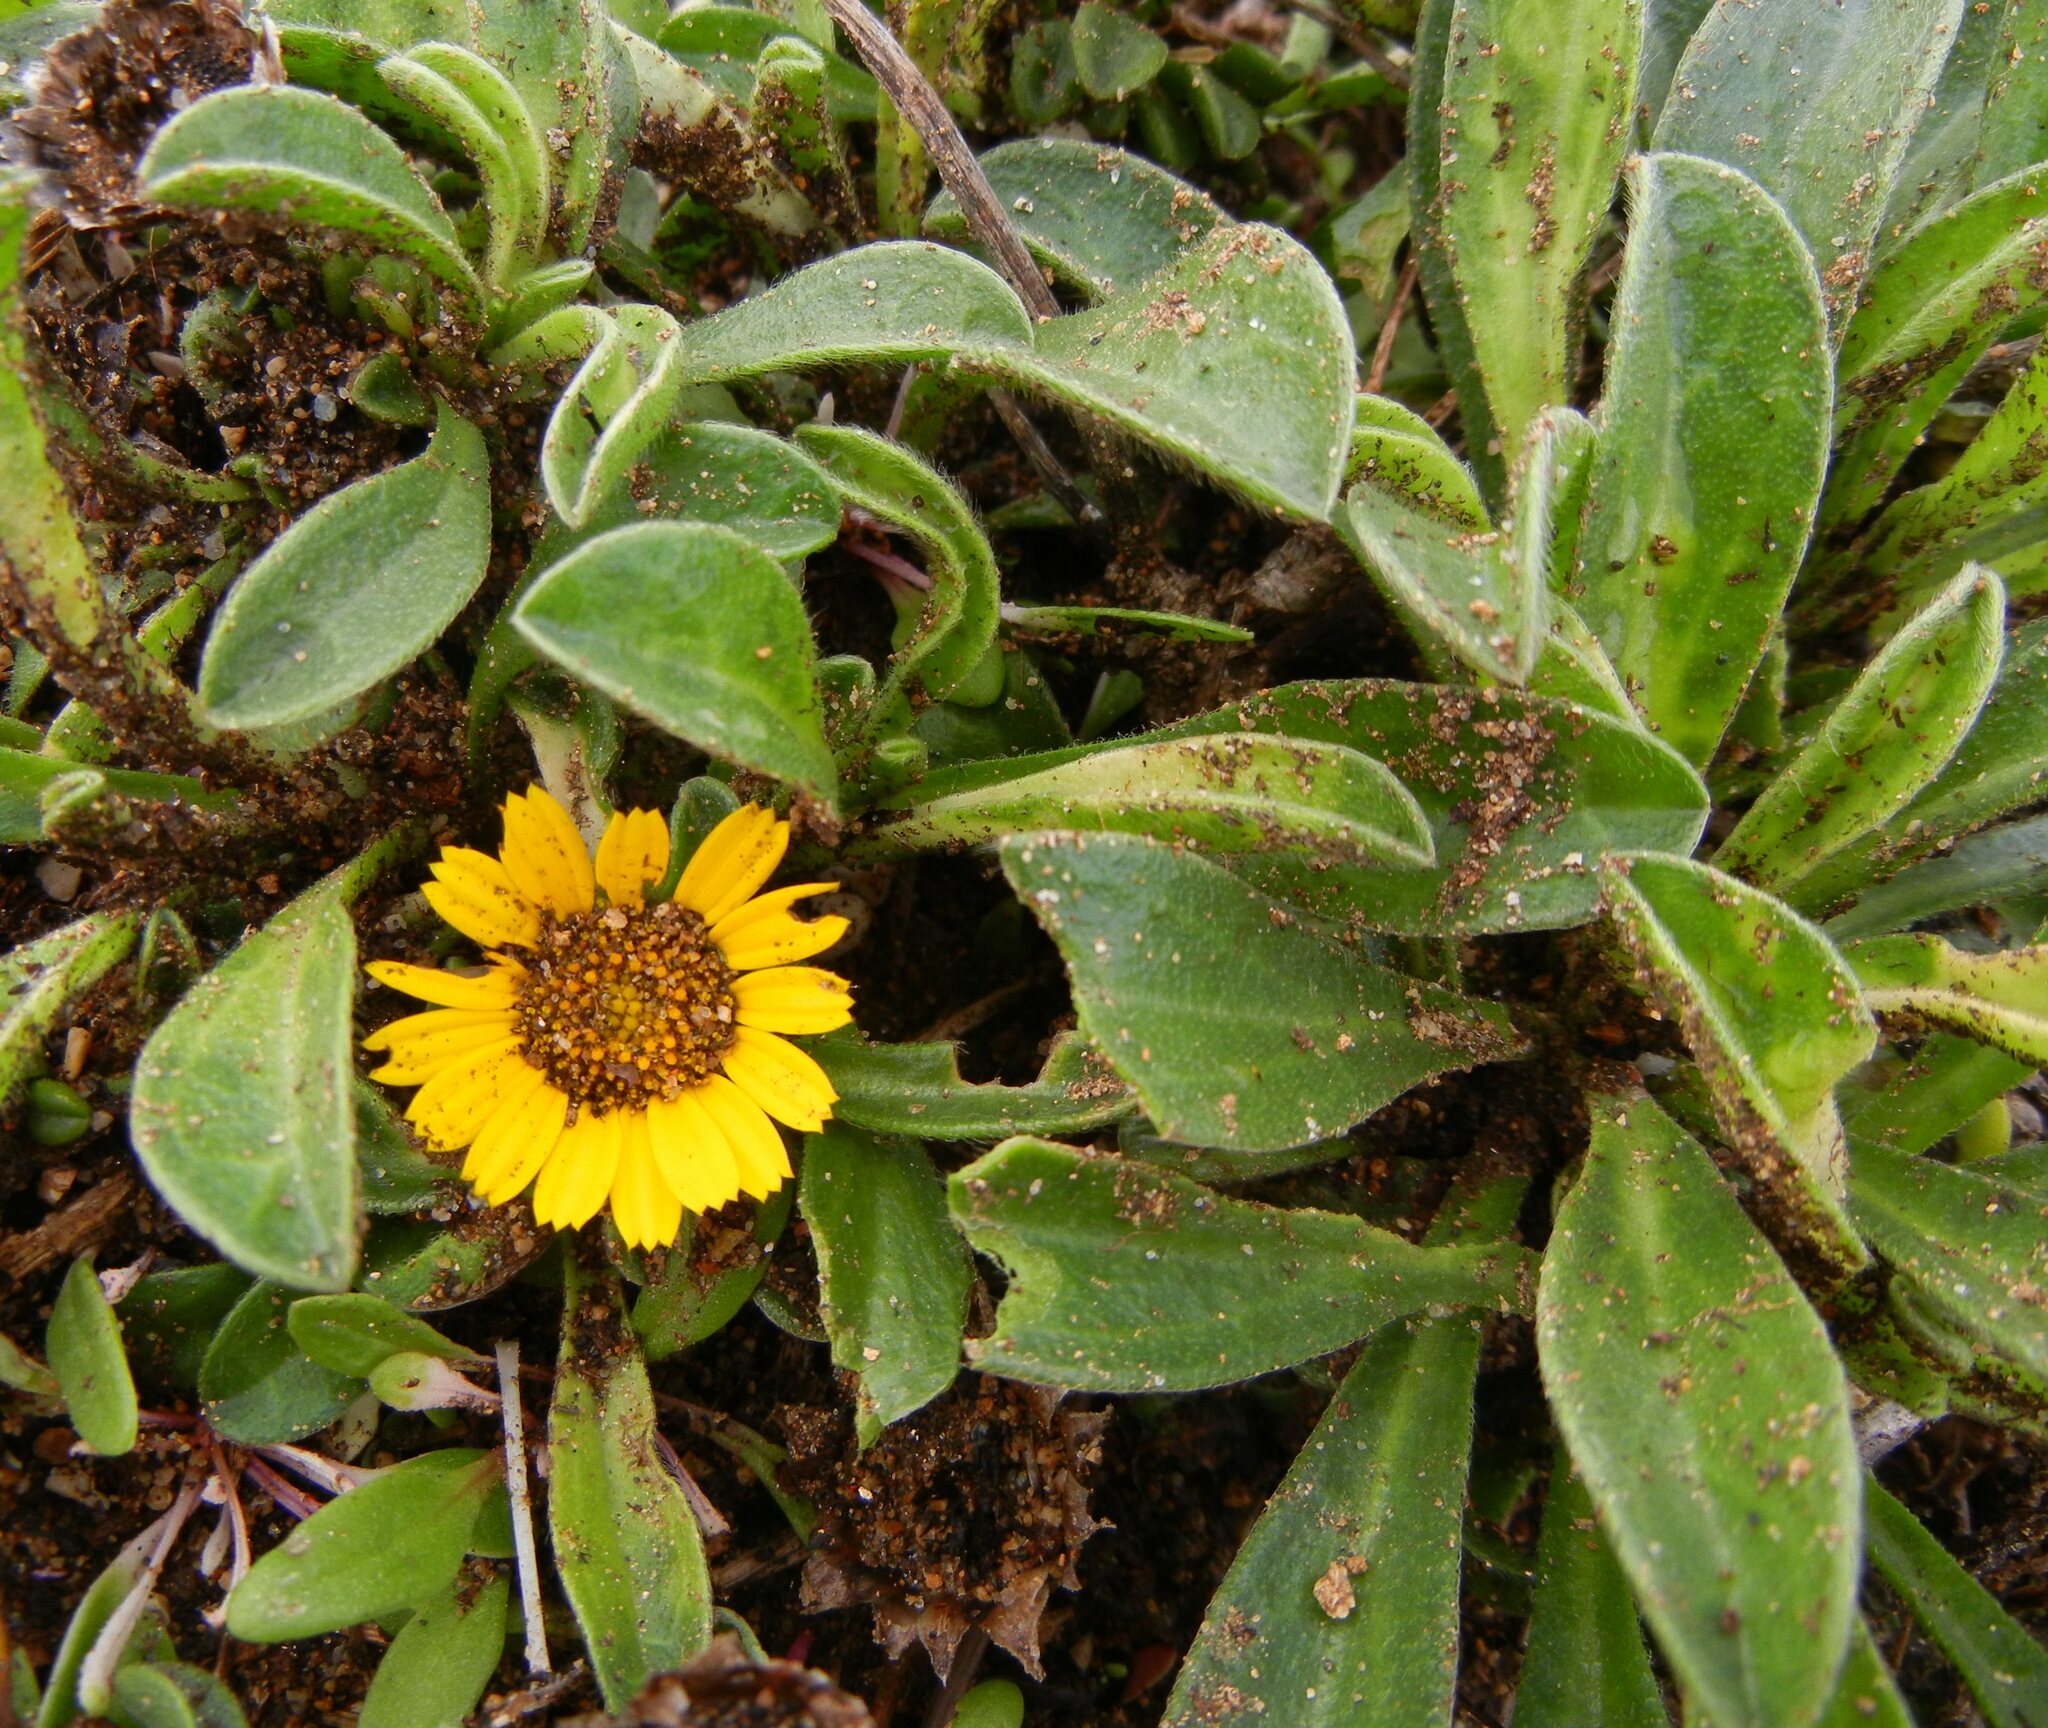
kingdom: Plantae
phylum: Tracheophyta
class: Magnoliopsida
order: Asterales
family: Asteraceae
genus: Pallenis
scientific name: Pallenis maritima
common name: Golden coin daisy
